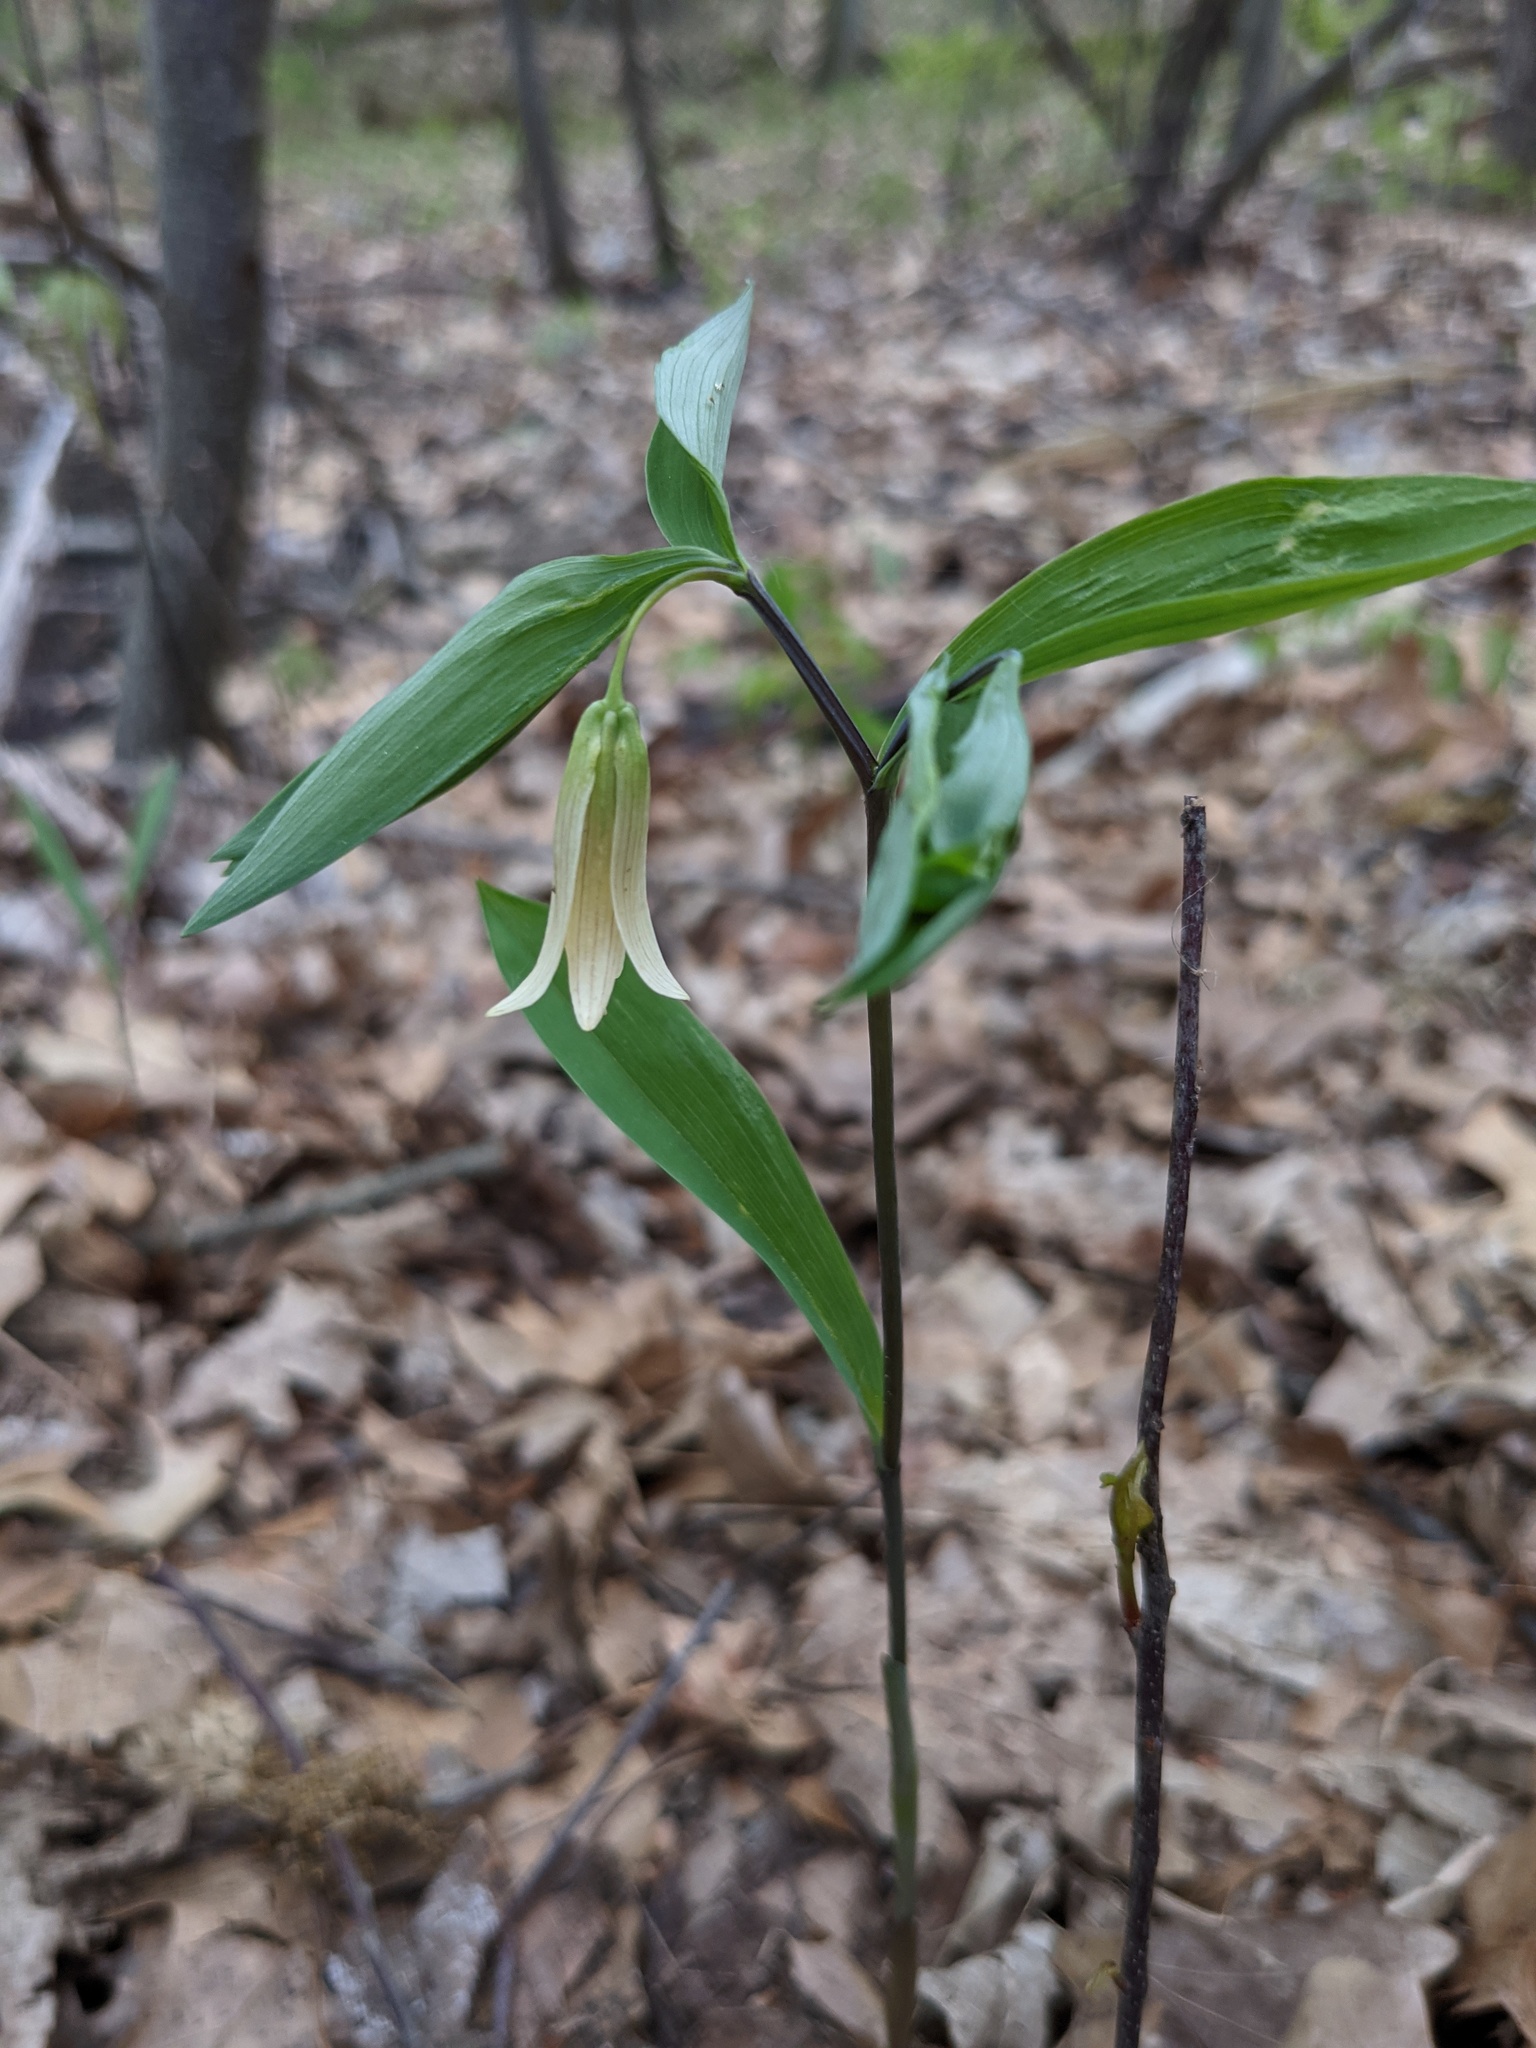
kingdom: Plantae
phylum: Tracheophyta
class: Liliopsida
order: Liliales
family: Colchicaceae
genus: Uvularia
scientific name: Uvularia sessilifolia
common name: Straw-lily
